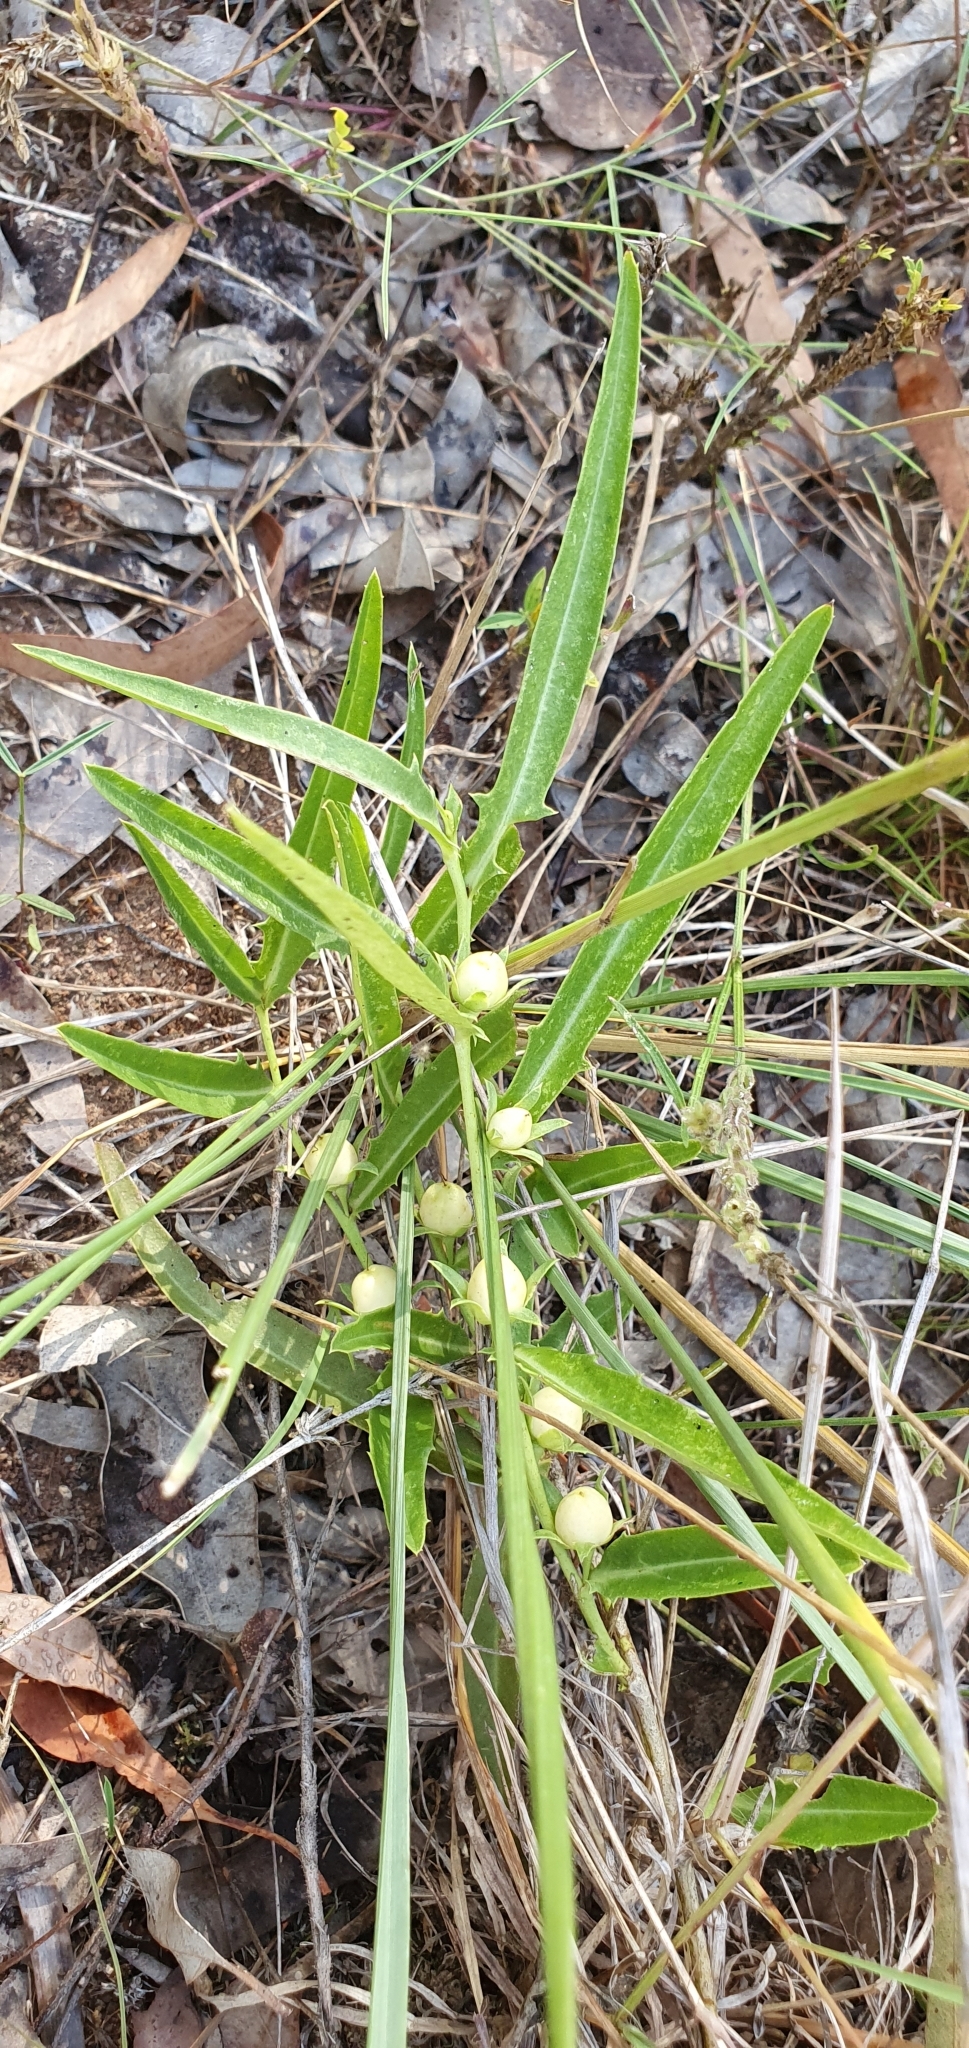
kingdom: Plantae
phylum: Tracheophyta
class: Magnoliopsida
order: Lamiales
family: Scrophulariaceae
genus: Eremophila
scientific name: Eremophila debilis
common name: Winter-apple
